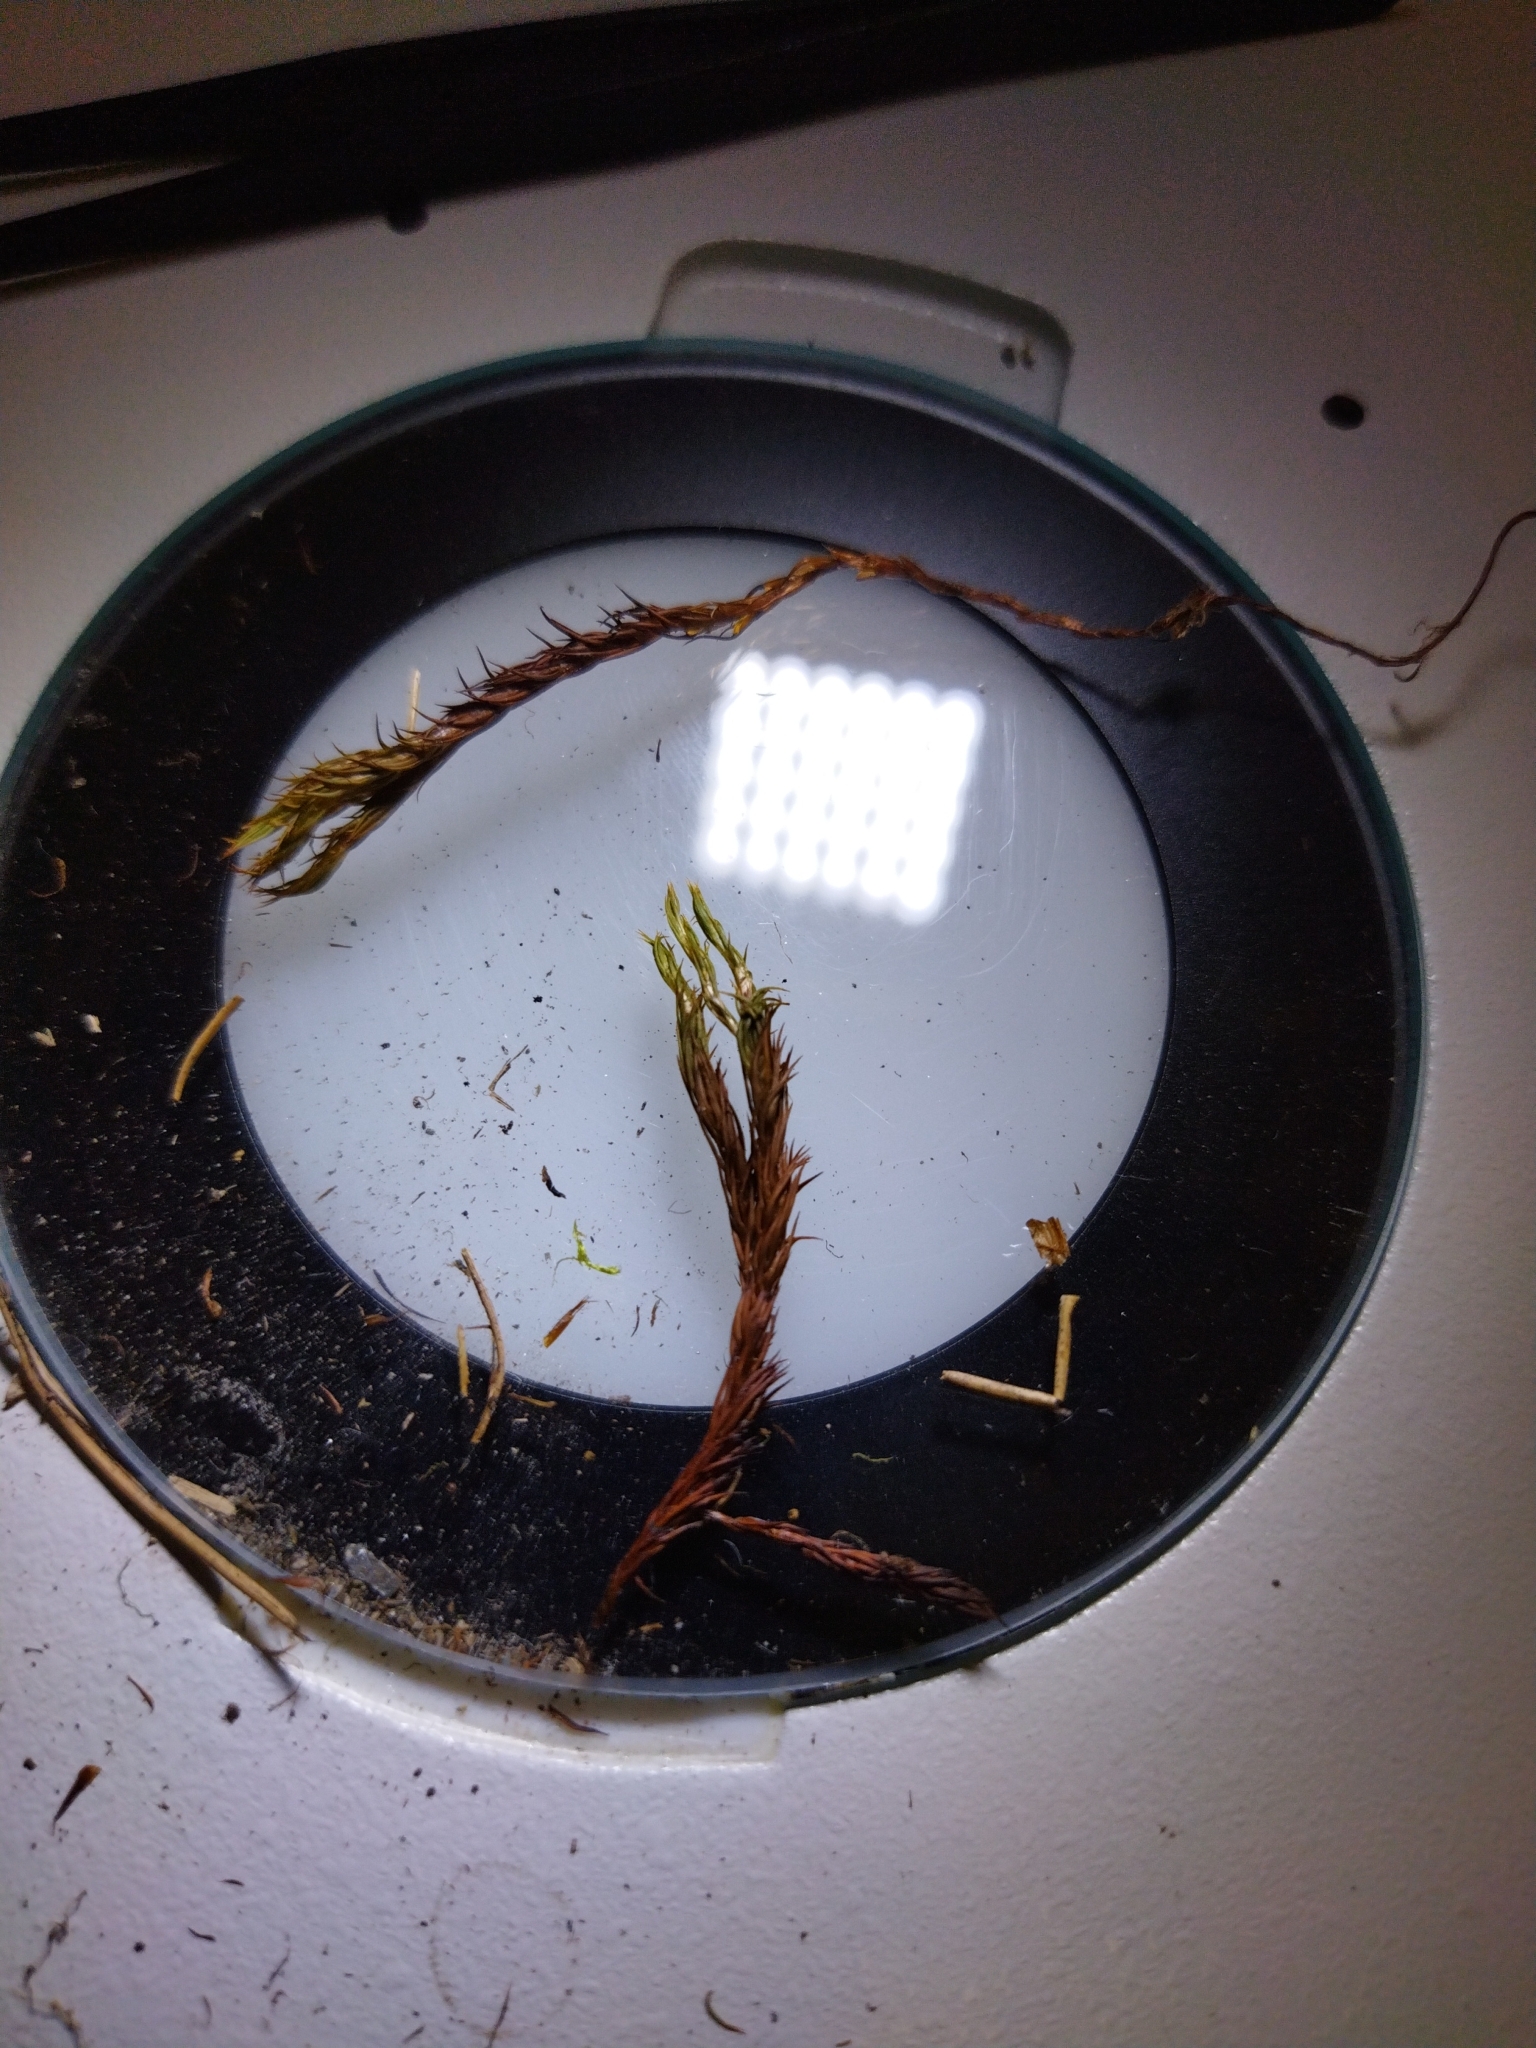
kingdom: Plantae
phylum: Bryophyta
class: Polytrichopsida
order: Polytrichales
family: Polytrichaceae
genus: Polytrichastrum
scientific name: Polytrichastrum alpinum
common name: Alpine haircap
